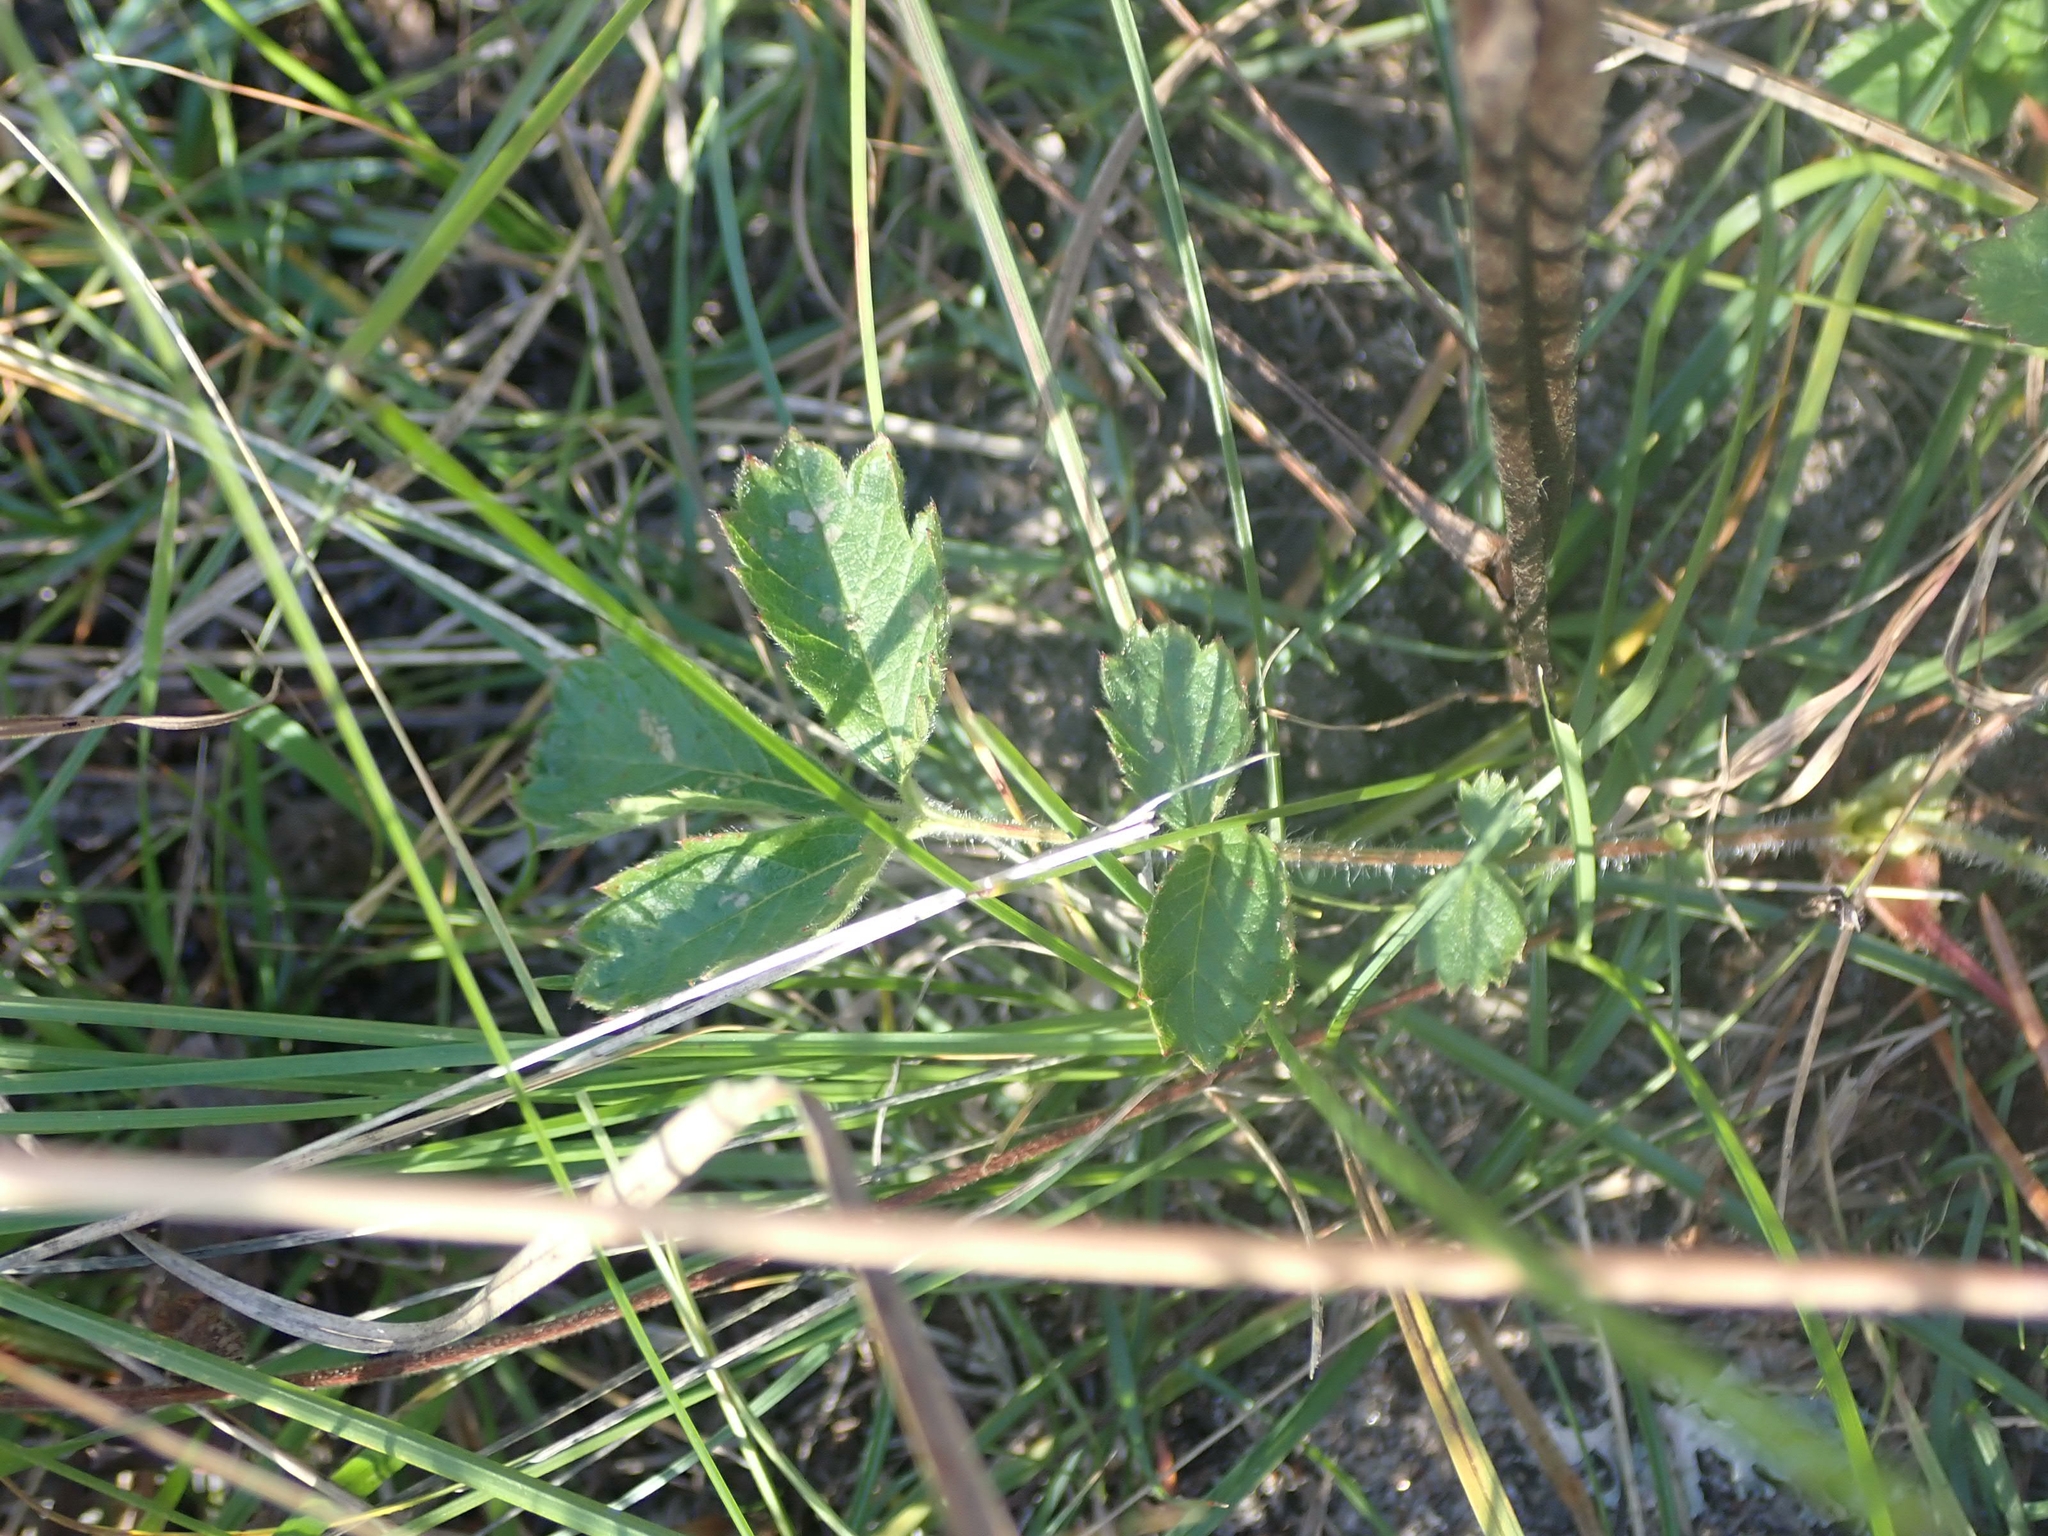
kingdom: Plantae
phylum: Tracheophyta
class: Magnoliopsida
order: Rosales
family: Rosaceae
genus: Drymocallis
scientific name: Drymocallis arguta
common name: Tall cinquefoil
